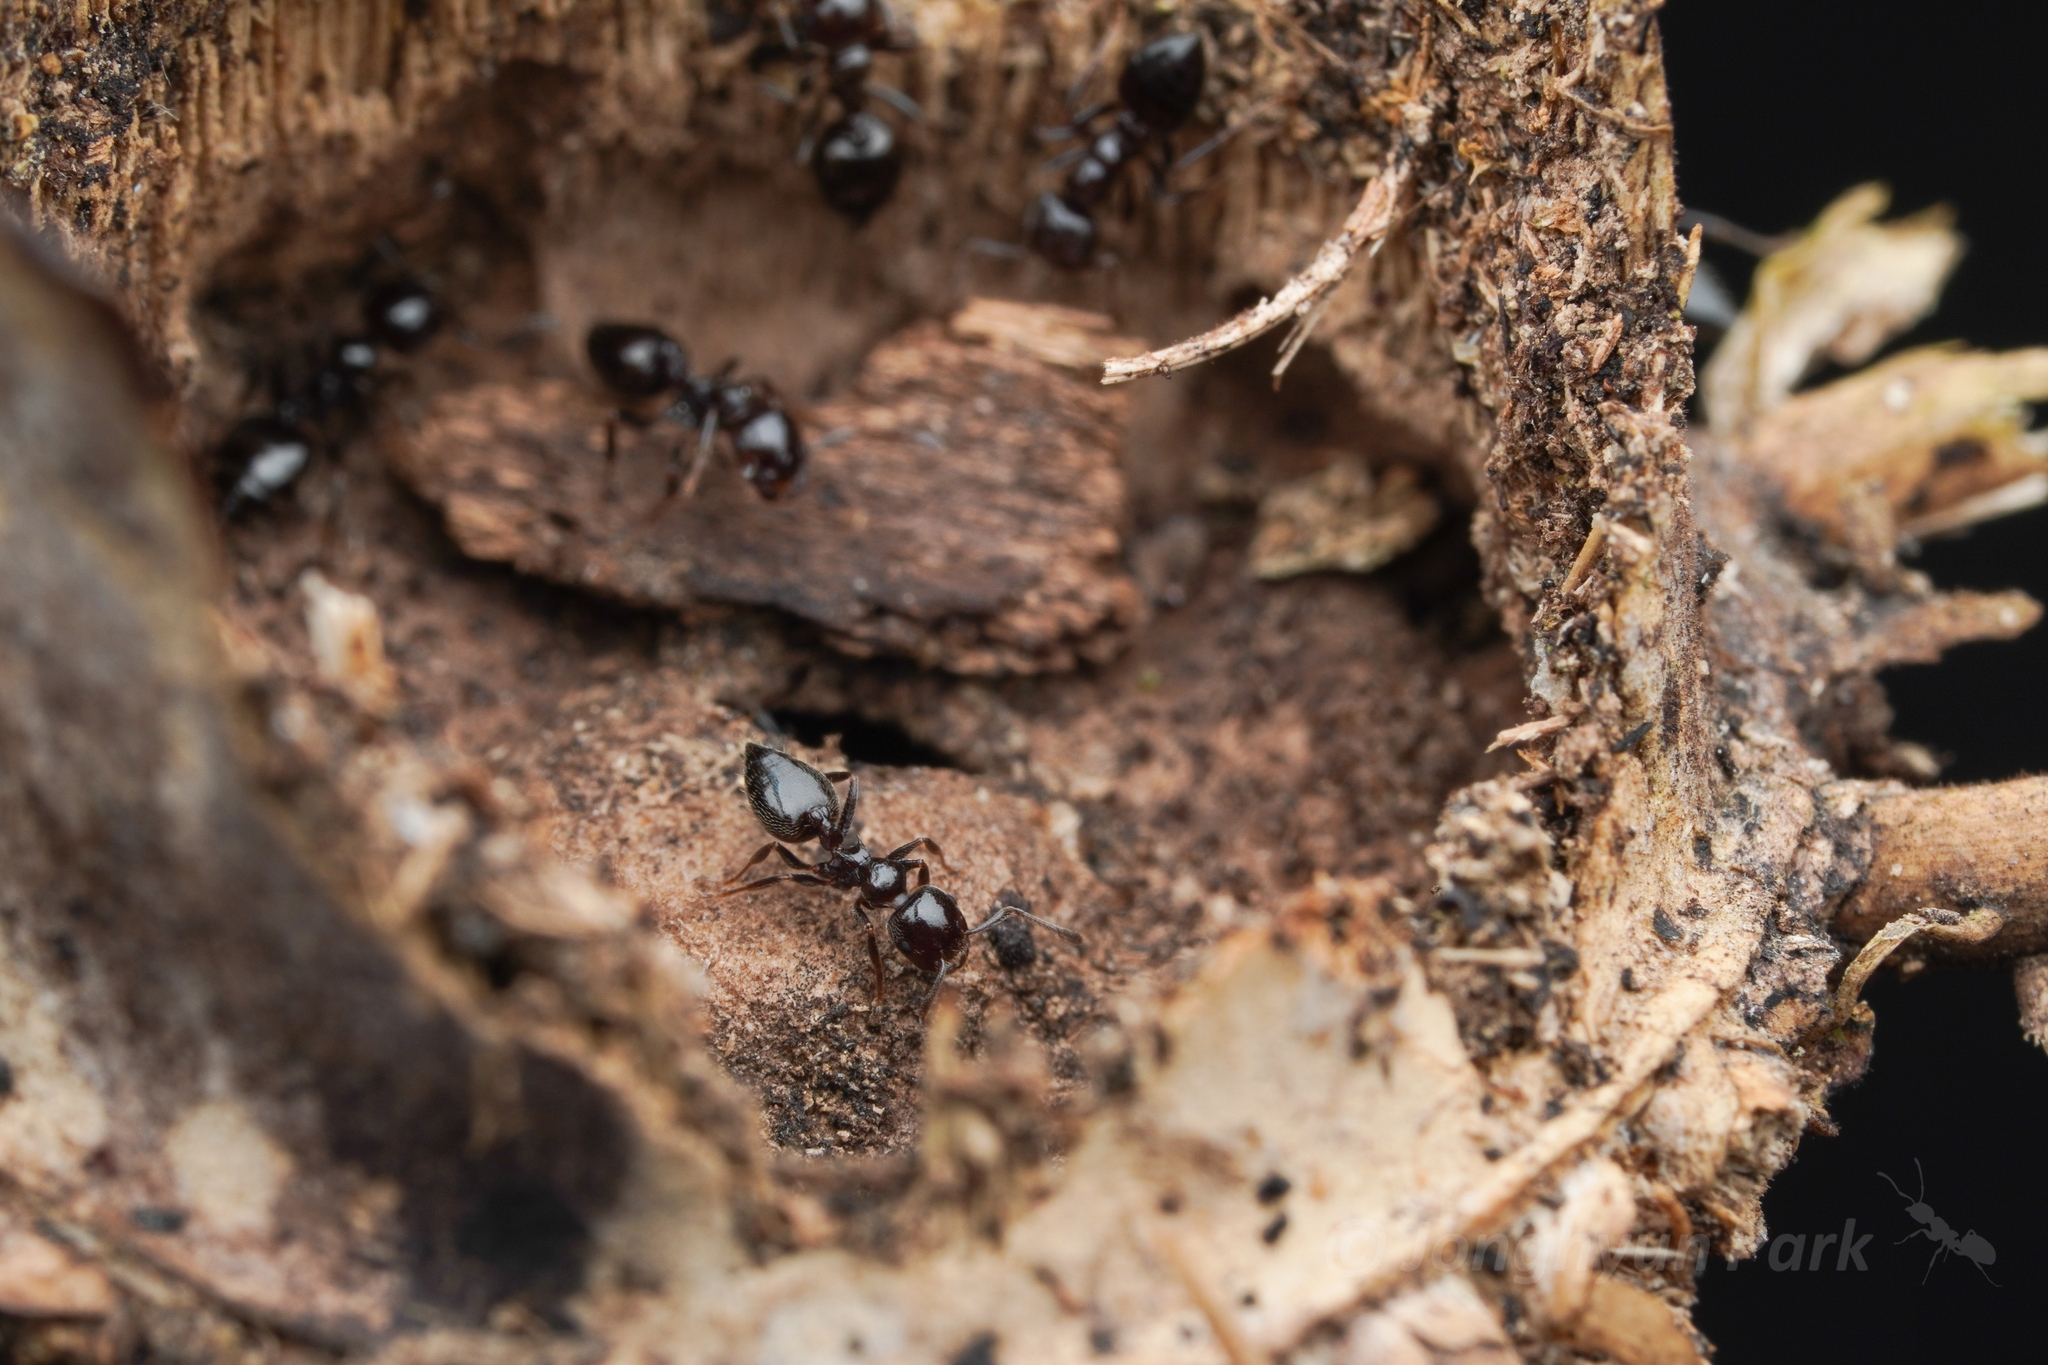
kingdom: Animalia
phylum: Arthropoda
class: Insecta
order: Hymenoptera
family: Formicidae
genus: Crematogaster
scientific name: Crematogaster nawai
